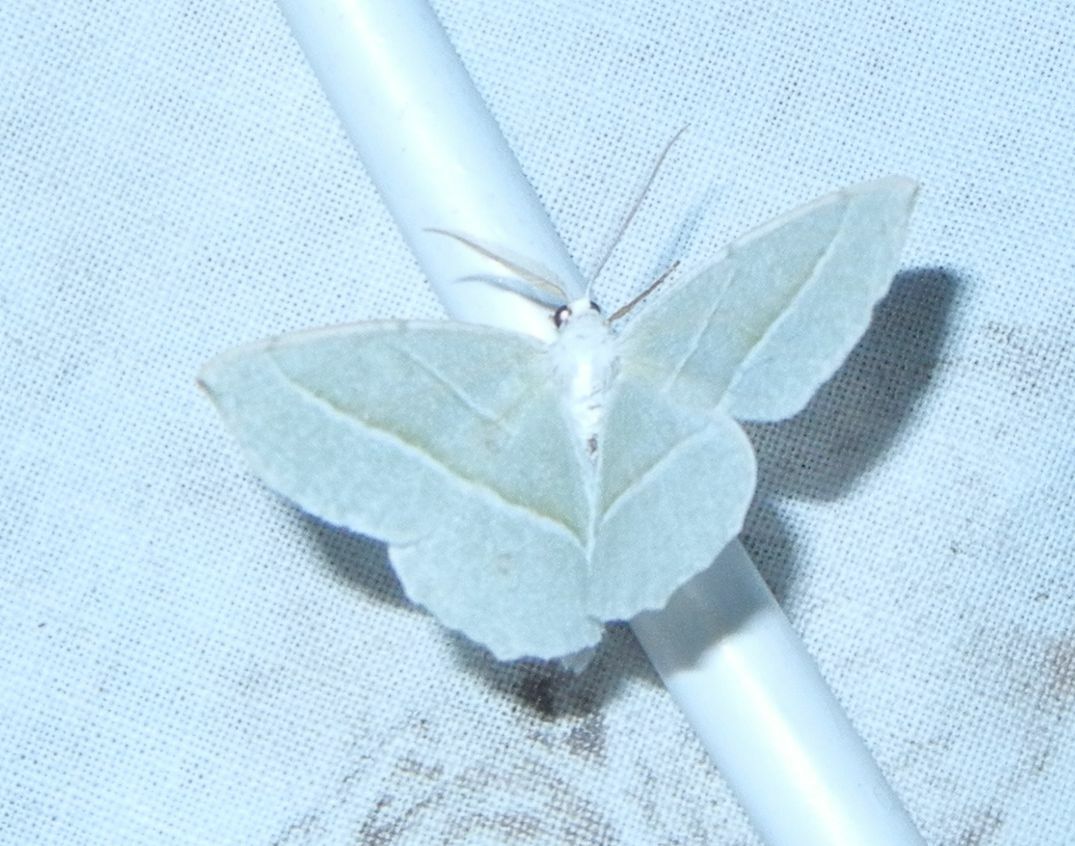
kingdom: Animalia
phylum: Arthropoda
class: Insecta
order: Lepidoptera
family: Geometridae
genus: Campaea
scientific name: Campaea margaritaria
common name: Light emerald
